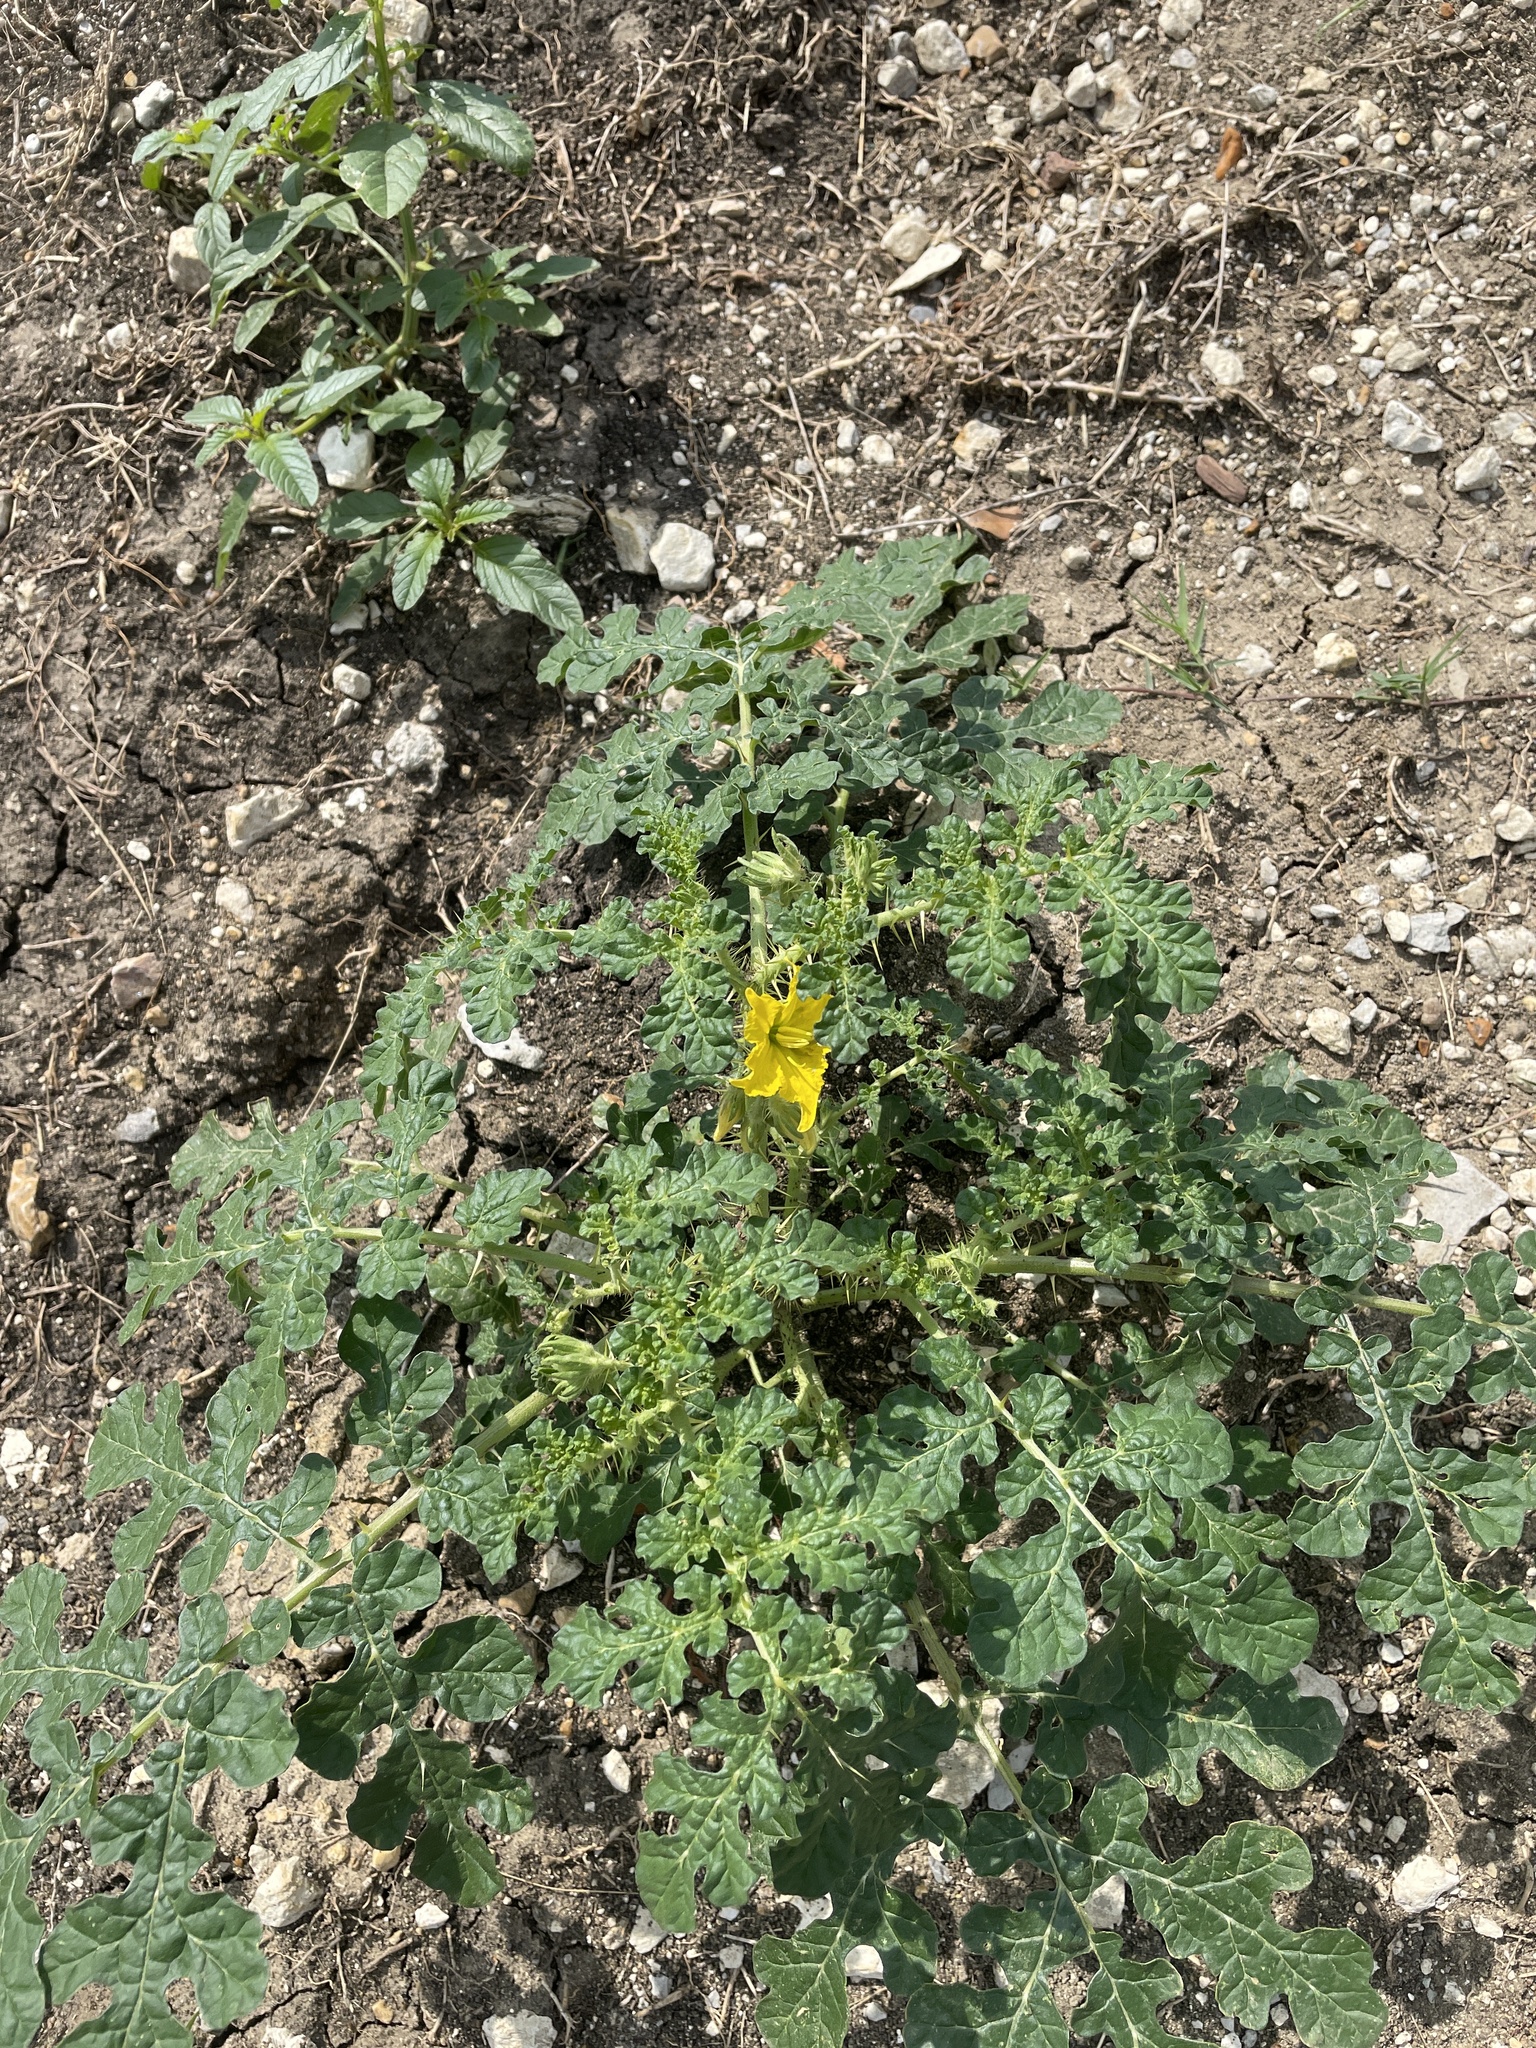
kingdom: Plantae
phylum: Tracheophyta
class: Magnoliopsida
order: Solanales
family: Solanaceae
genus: Solanum
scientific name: Solanum angustifolium
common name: Buffalobur nightshade
